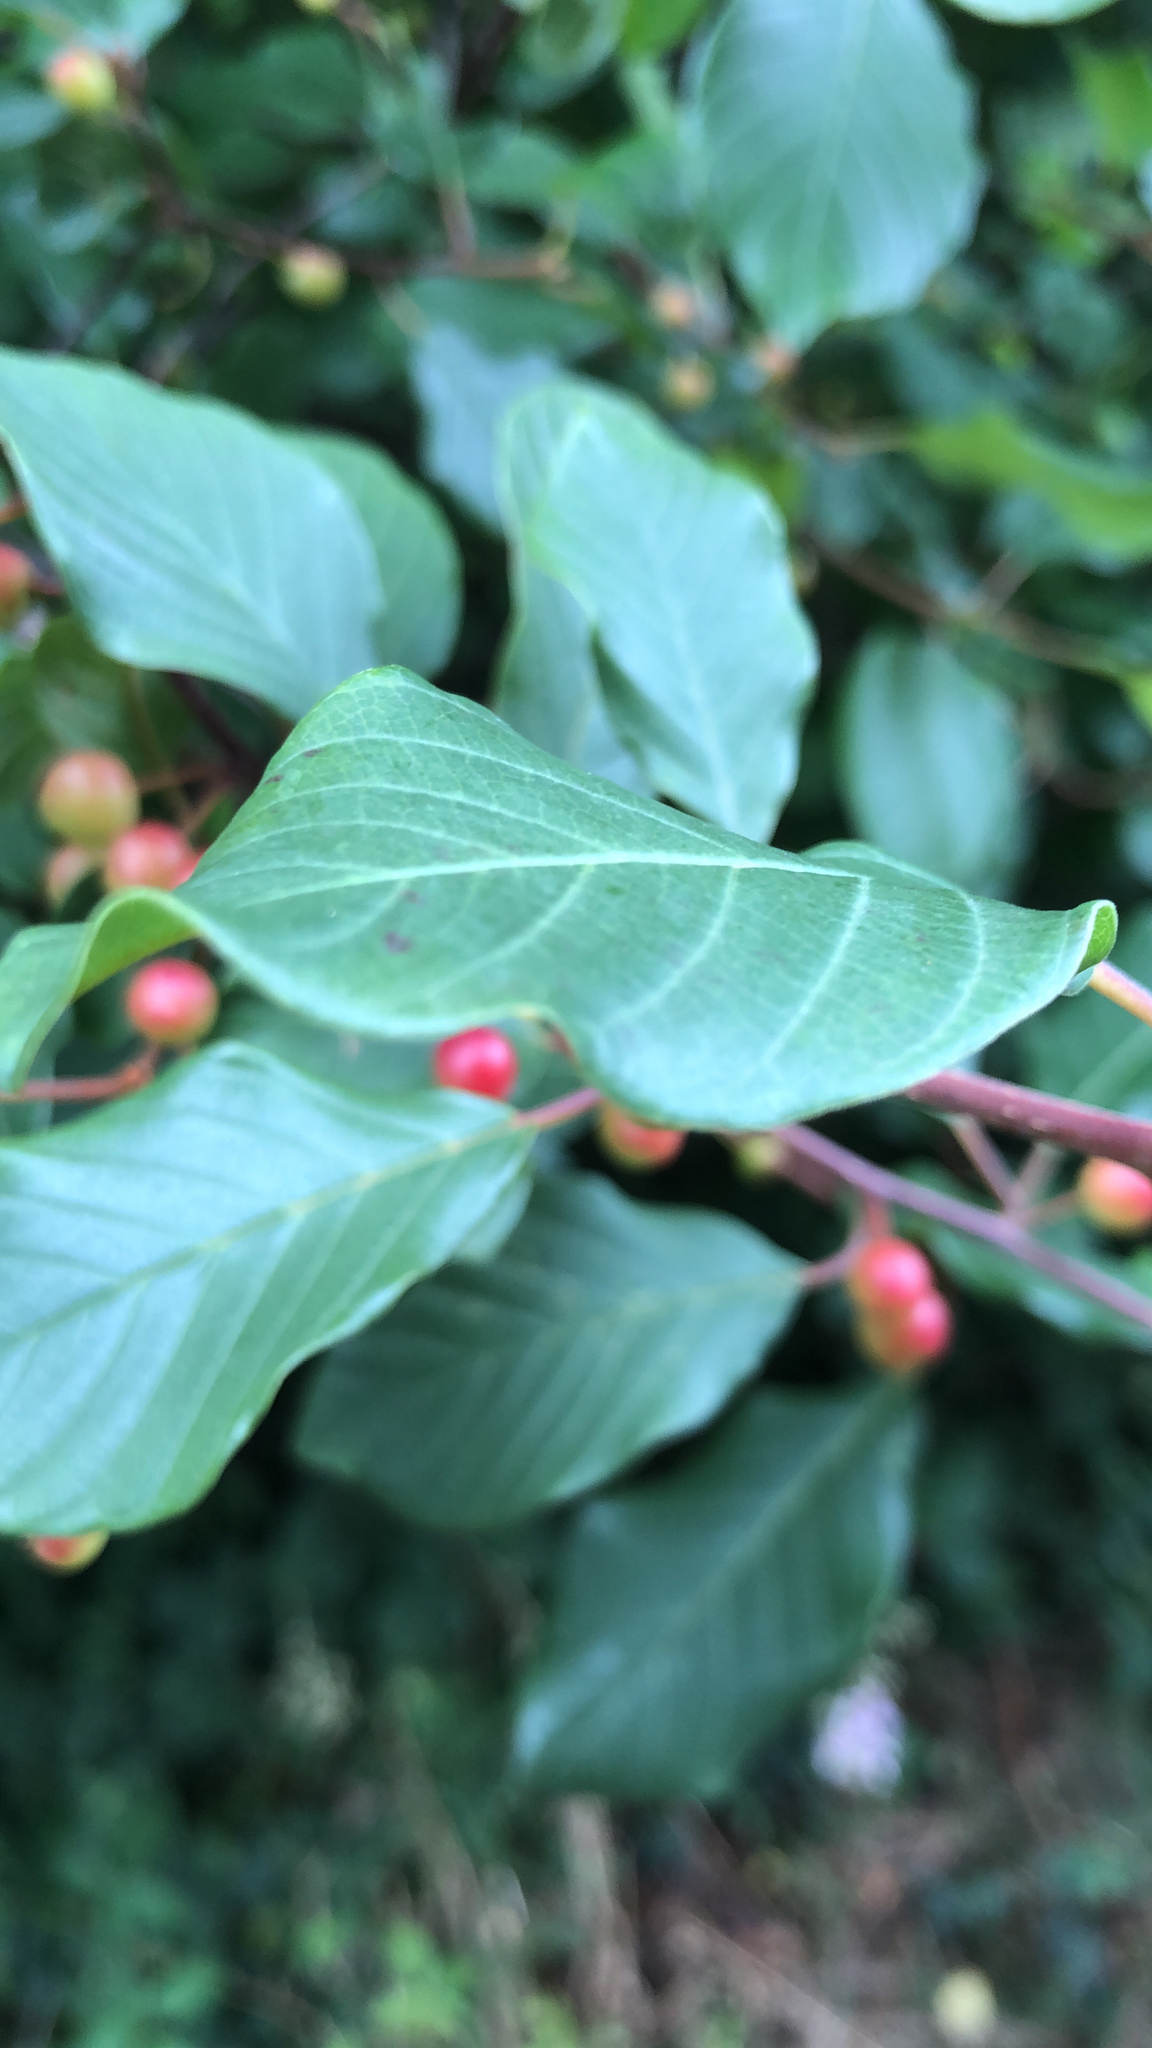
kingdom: Plantae
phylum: Tracheophyta
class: Magnoliopsida
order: Rosales
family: Rhamnaceae
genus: Frangula
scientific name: Frangula alnus
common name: Alder buckthorn
